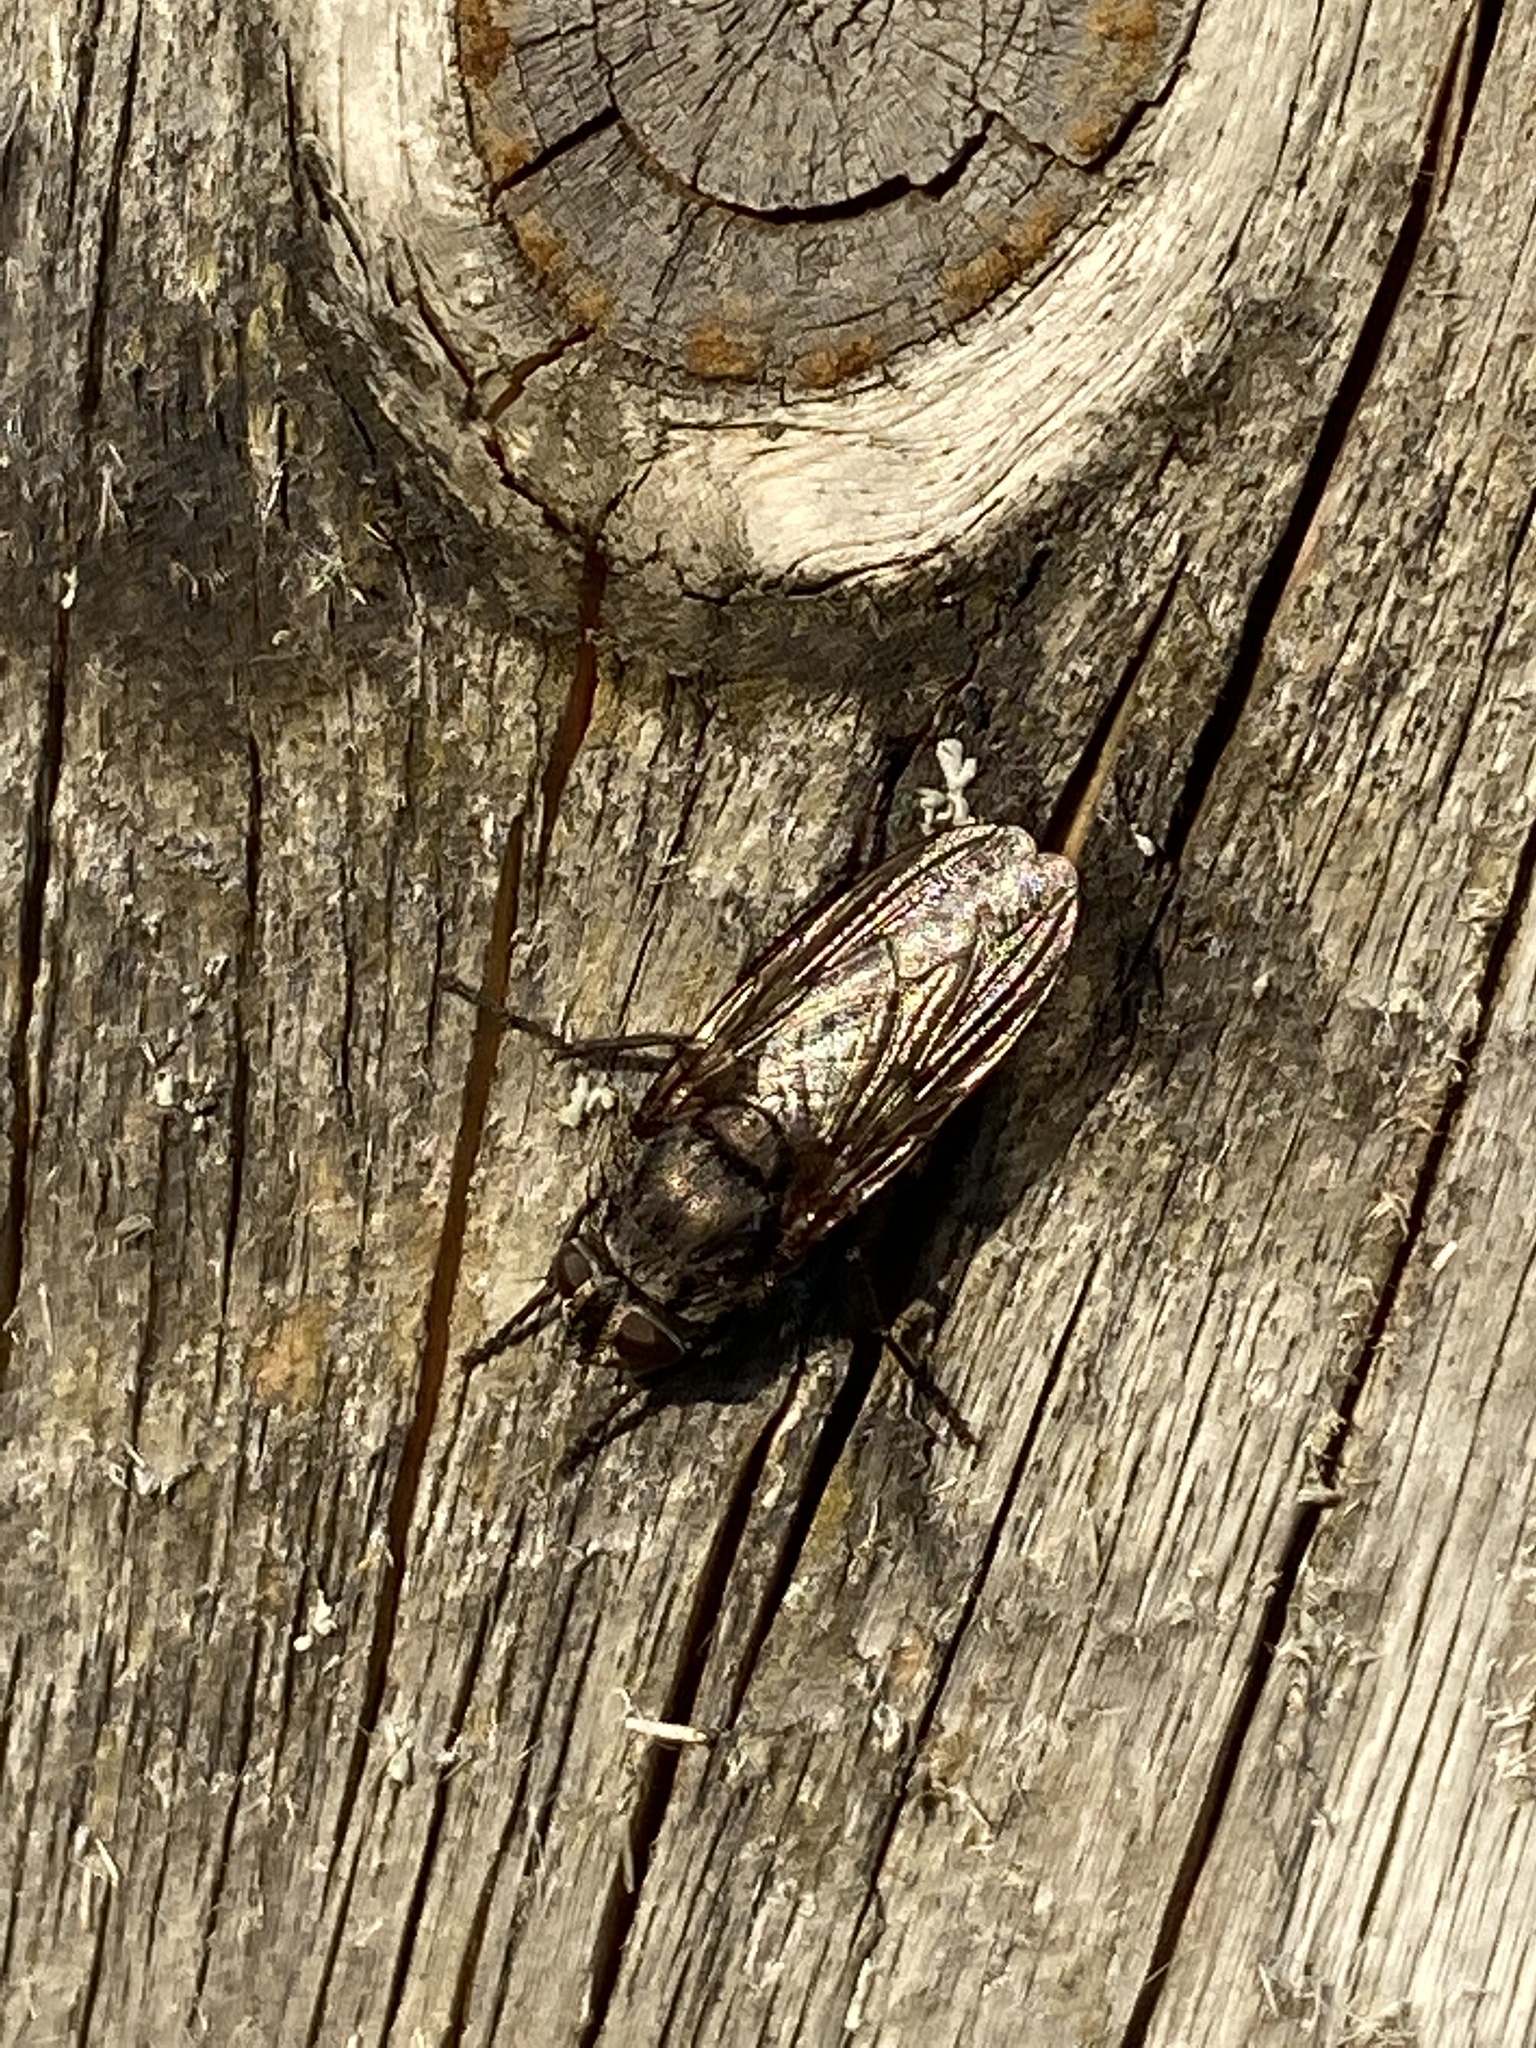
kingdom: Animalia
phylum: Arthropoda
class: Insecta
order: Diptera
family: Polleniidae
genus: Pollenia
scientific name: Pollenia vagabunda
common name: Vagabund cluster fly
